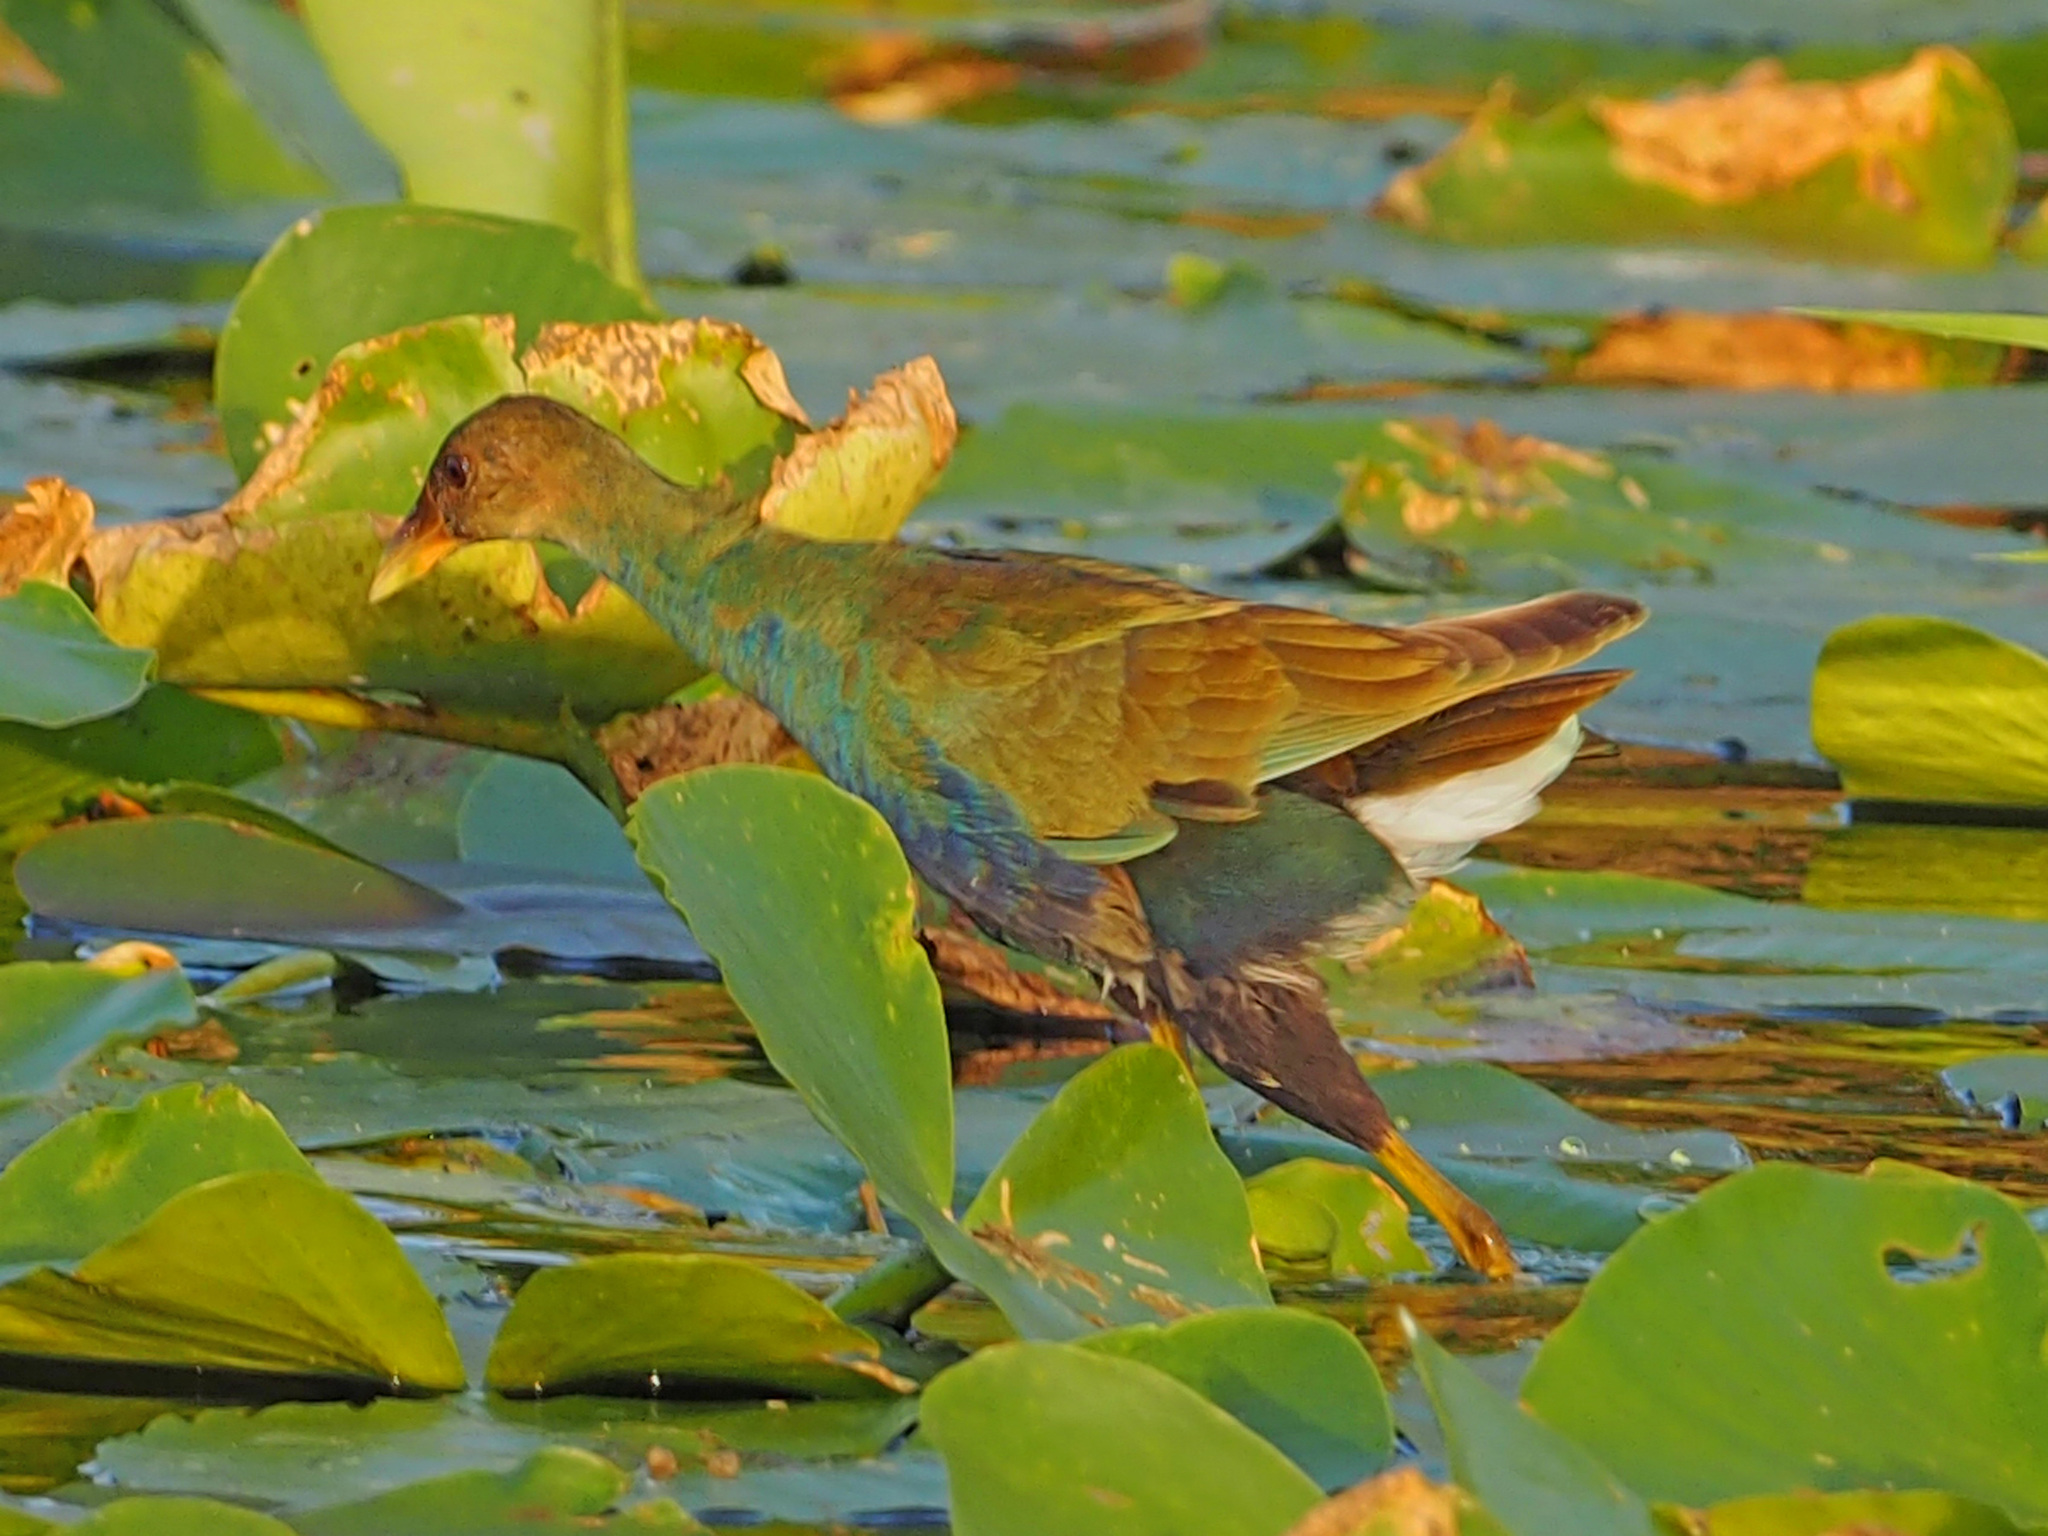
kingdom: Animalia
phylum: Chordata
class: Aves
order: Gruiformes
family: Rallidae
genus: Porphyrio
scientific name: Porphyrio martinica
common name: Purple gallinule
